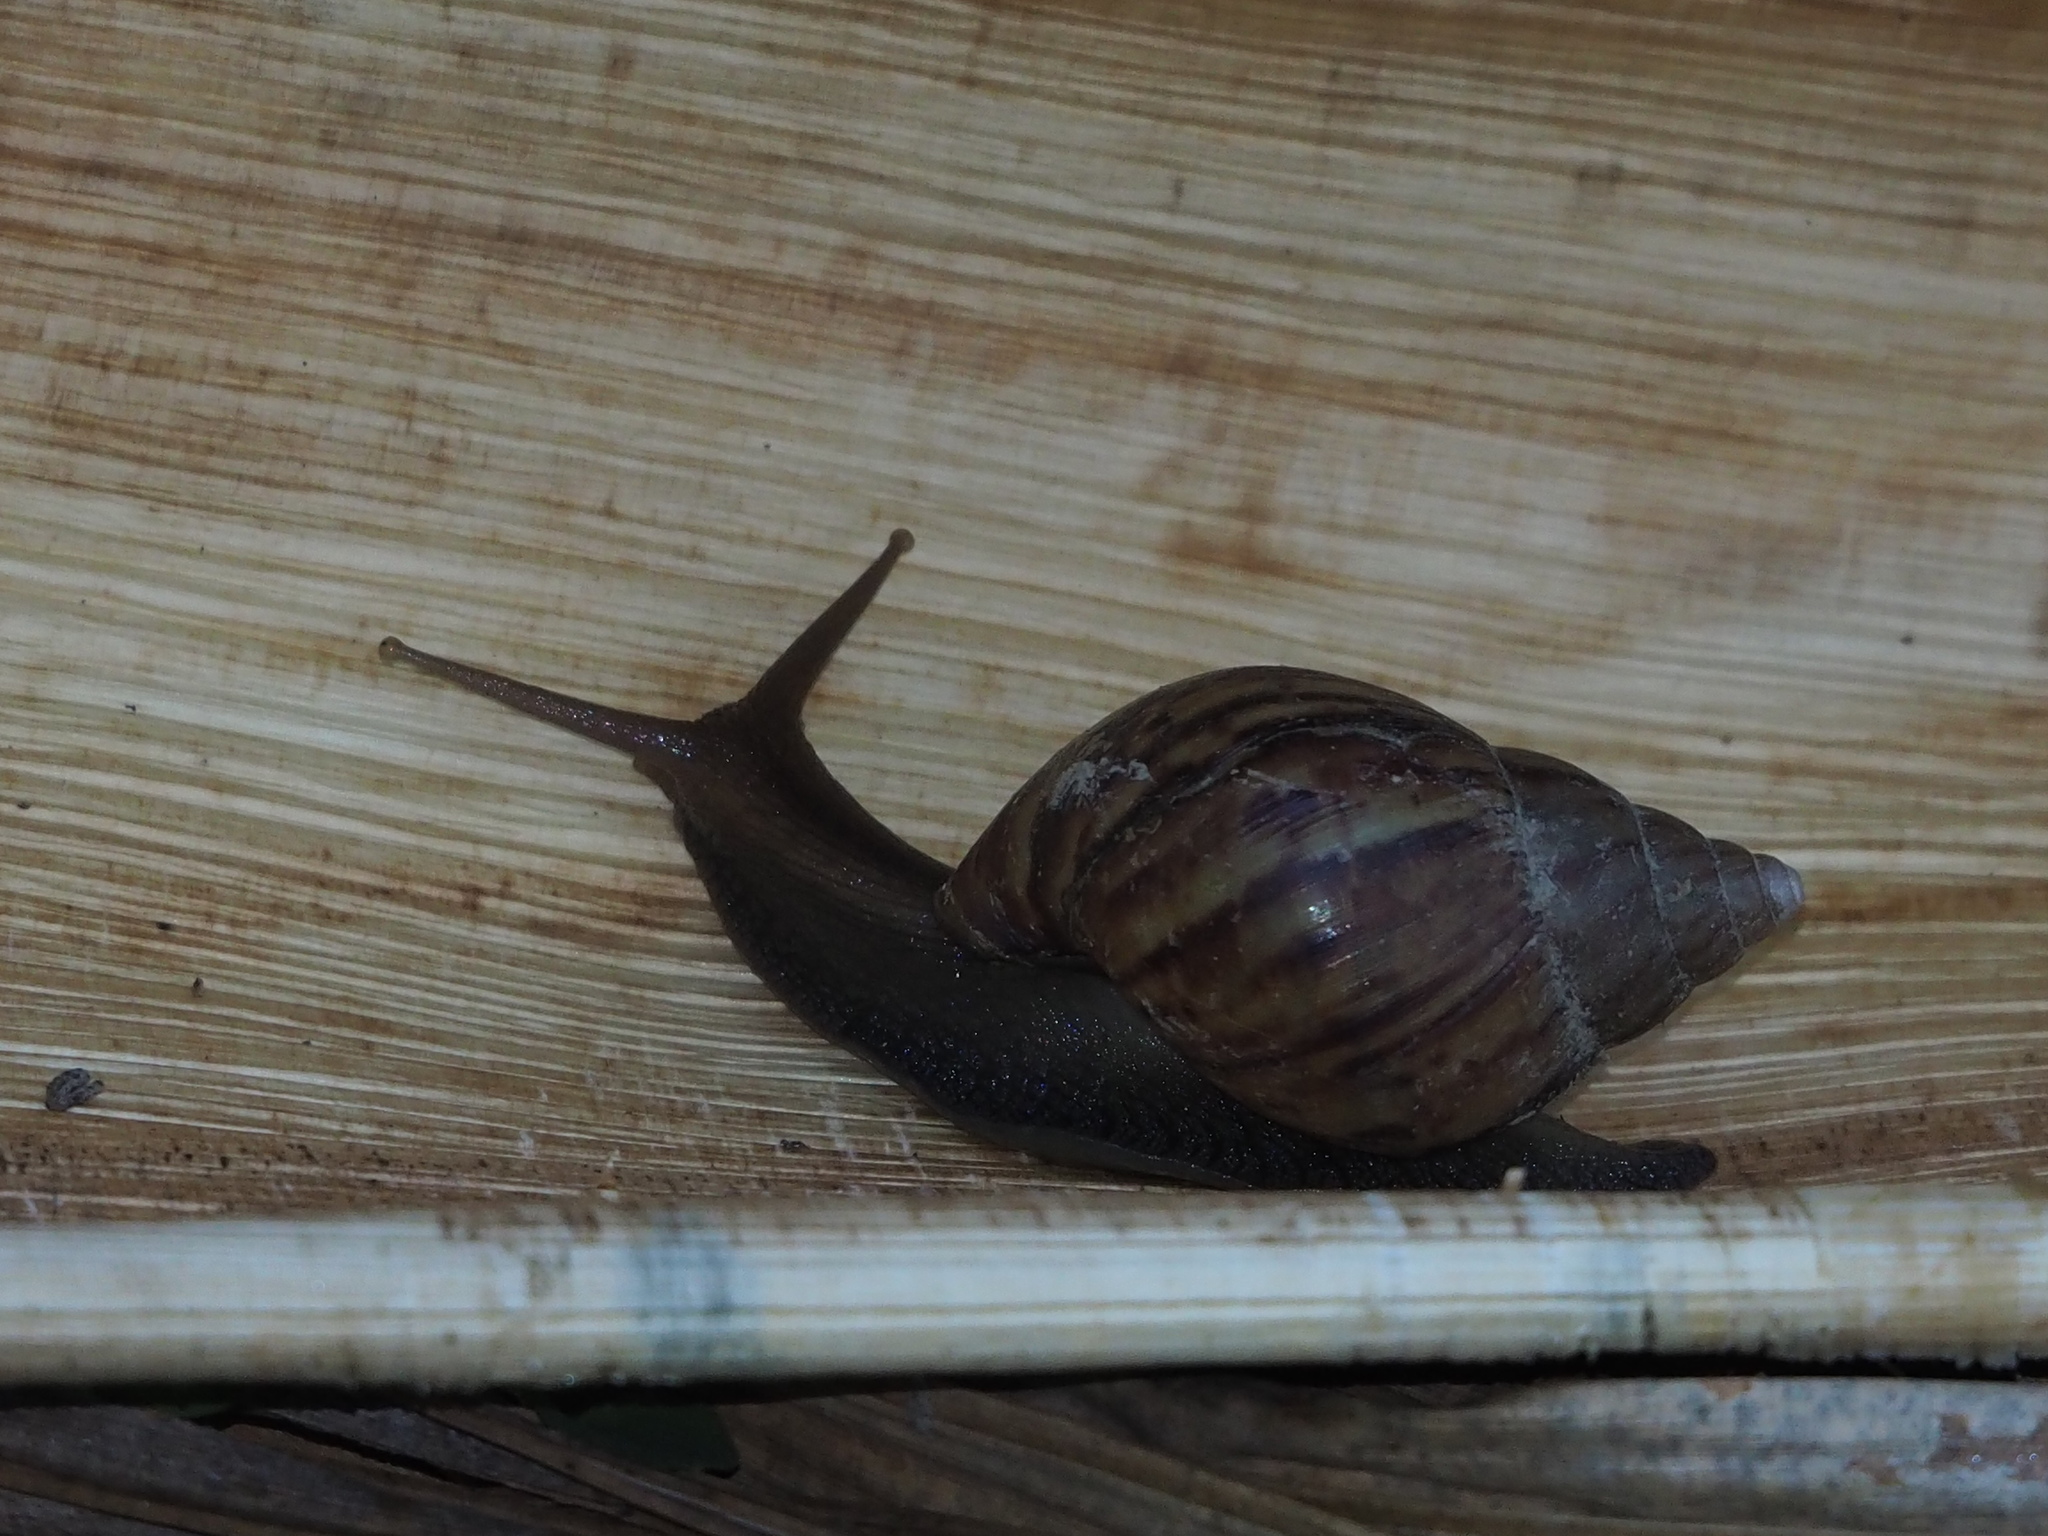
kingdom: Animalia
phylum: Mollusca
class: Gastropoda
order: Stylommatophora
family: Achatinidae
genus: Lissachatina
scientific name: Lissachatina fulica
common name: Giant african snail
